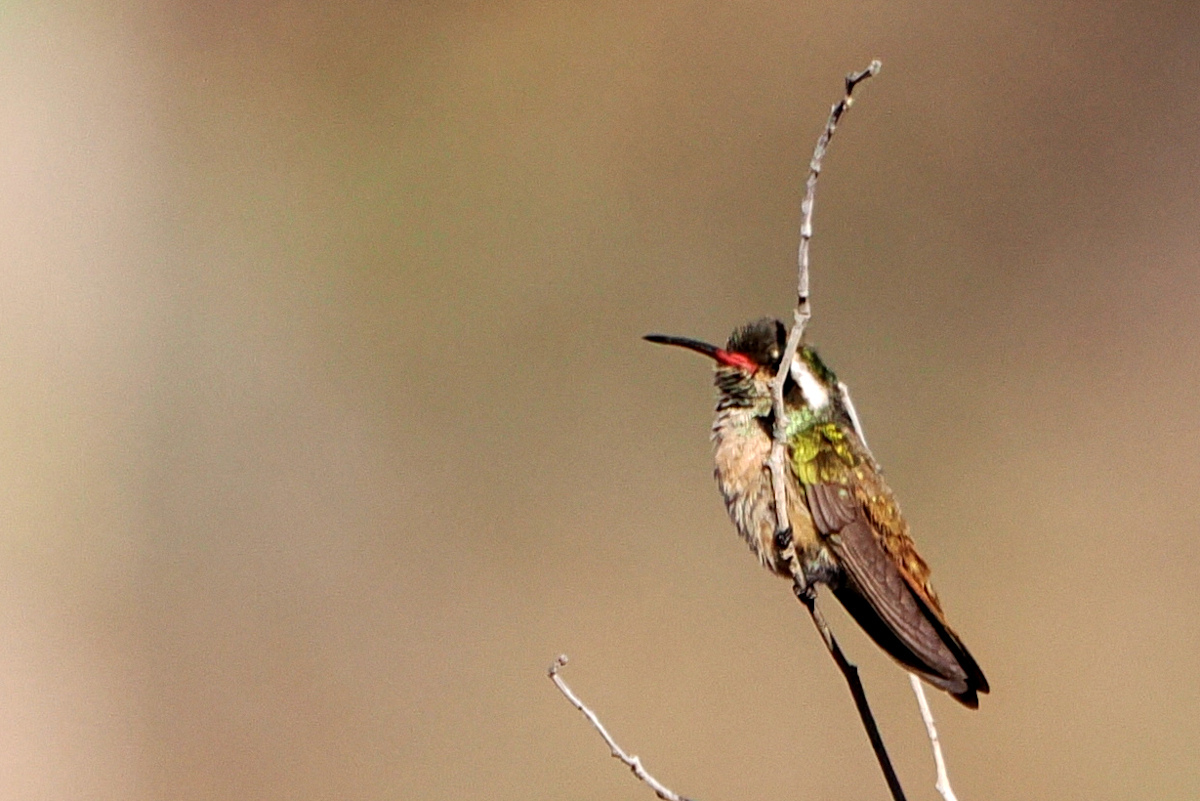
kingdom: Animalia
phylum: Chordata
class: Aves
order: Apodiformes
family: Trochilidae
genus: Basilinna
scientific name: Basilinna xantusii
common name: Xantus's hummingbird
